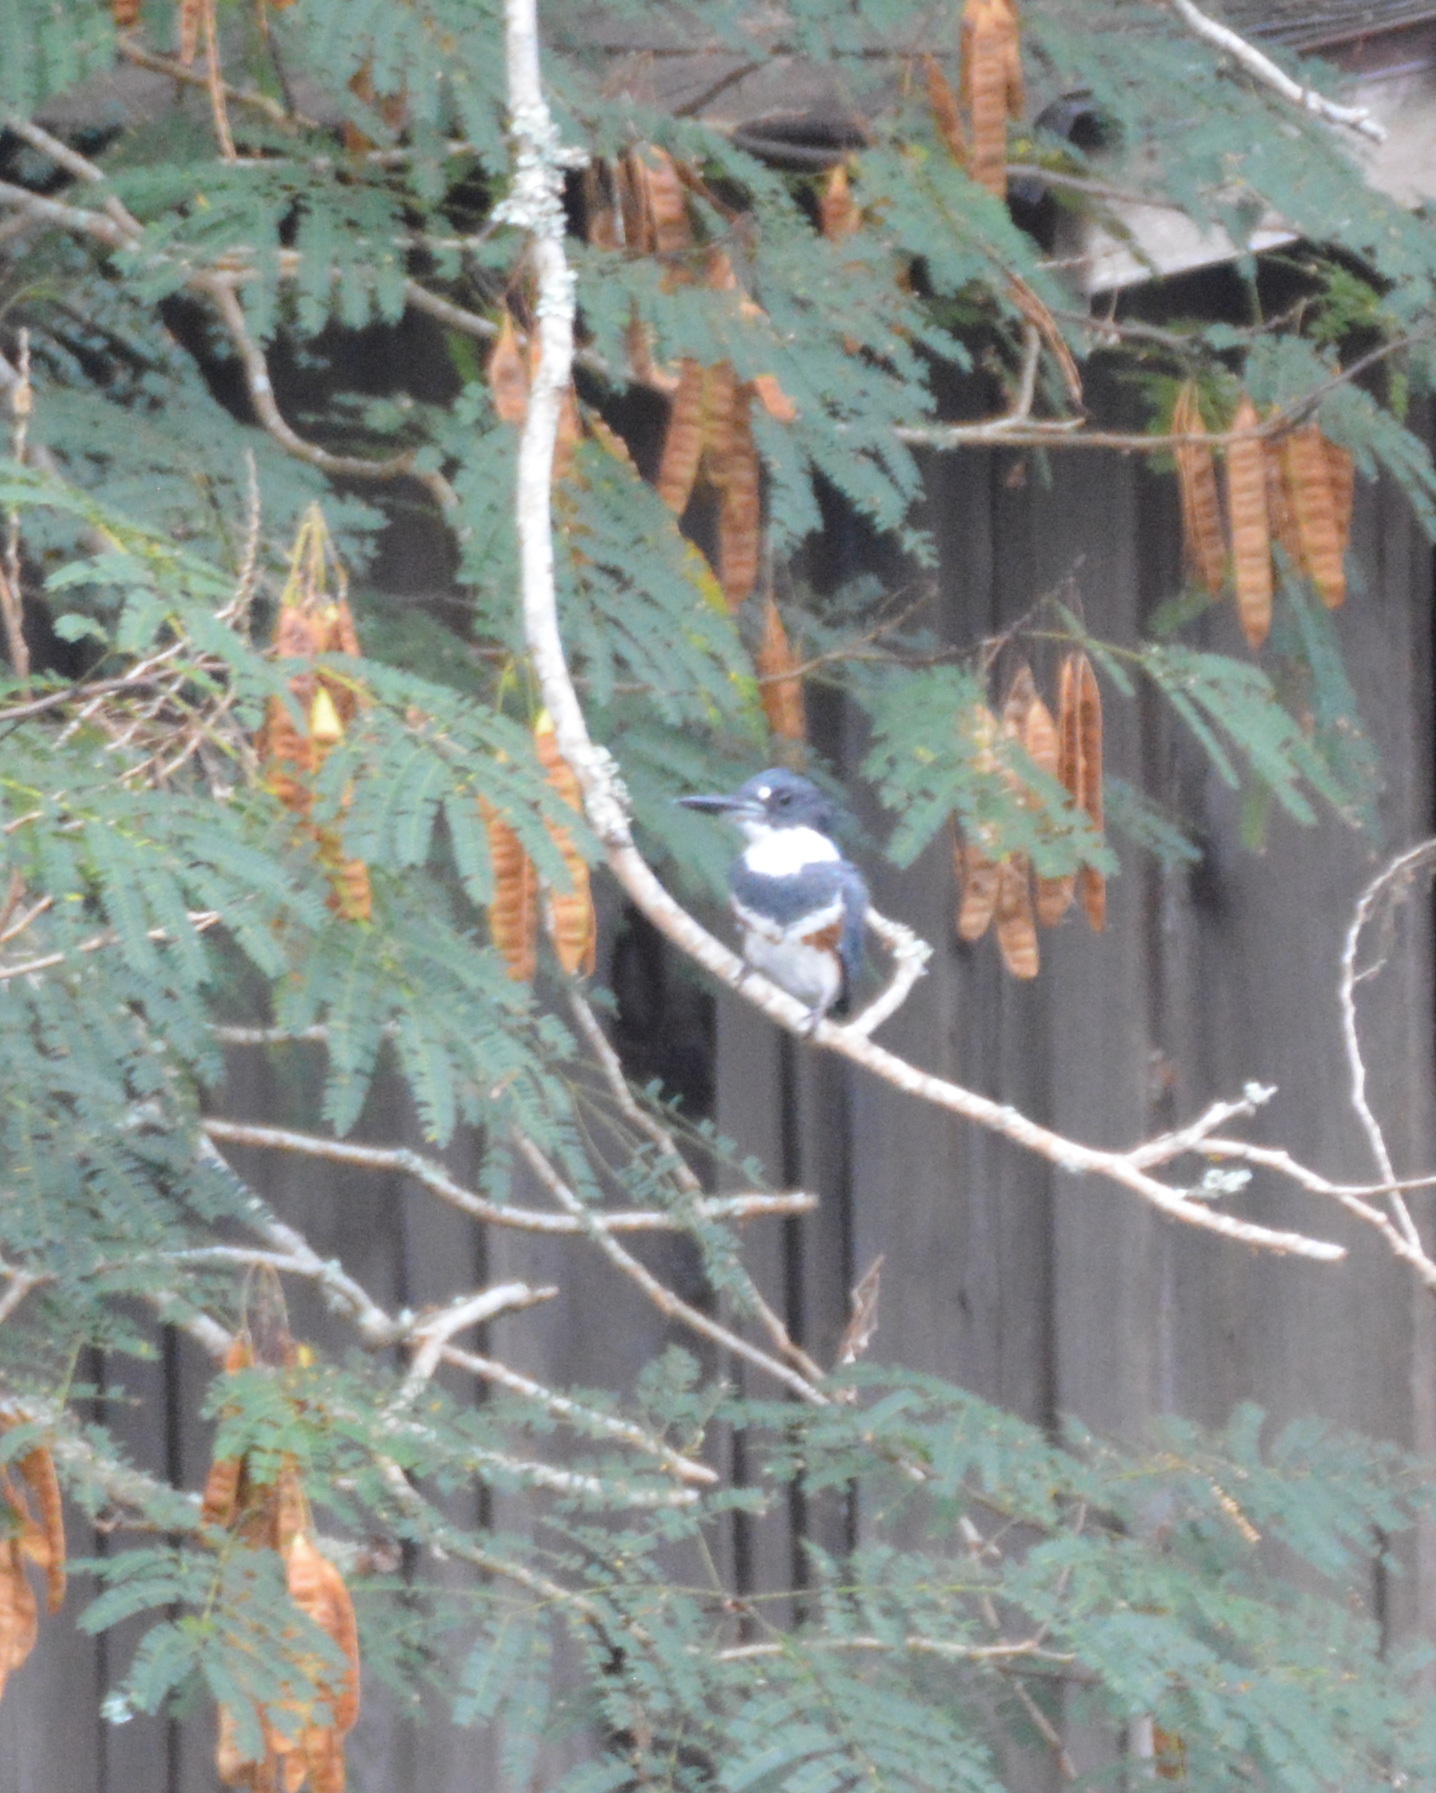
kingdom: Animalia
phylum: Chordata
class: Aves
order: Coraciiformes
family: Alcedinidae
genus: Megaceryle
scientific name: Megaceryle alcyon
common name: Belted kingfisher
